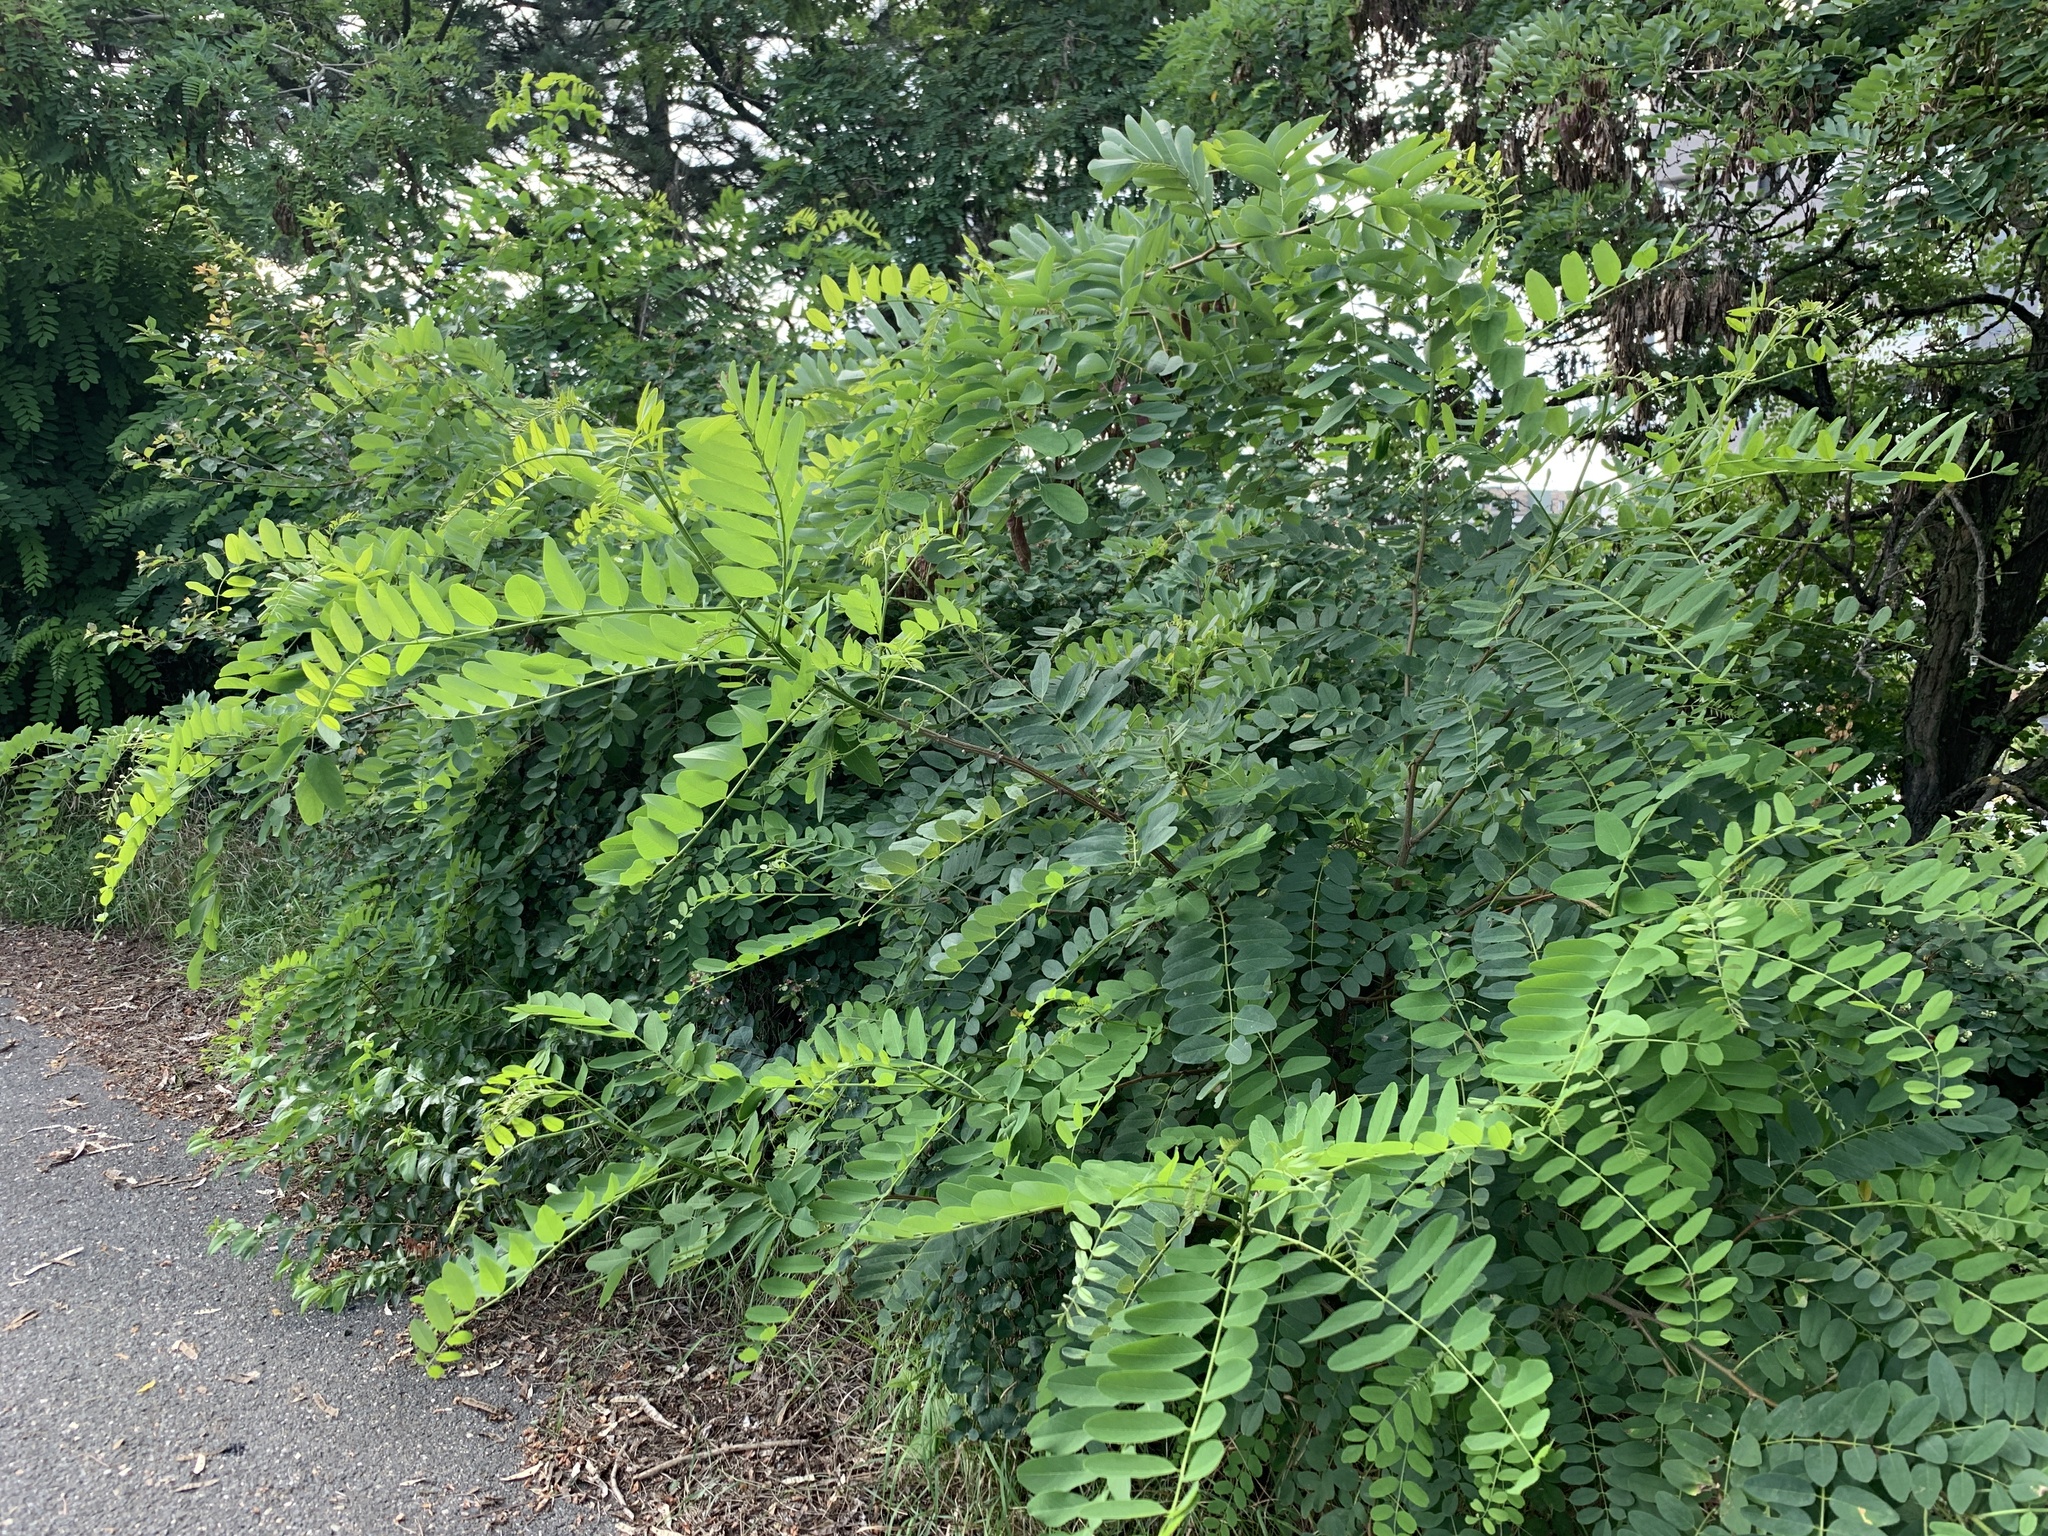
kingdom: Plantae
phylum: Tracheophyta
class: Magnoliopsida
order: Fabales
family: Fabaceae
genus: Robinia
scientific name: Robinia pseudoacacia
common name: Black locust
